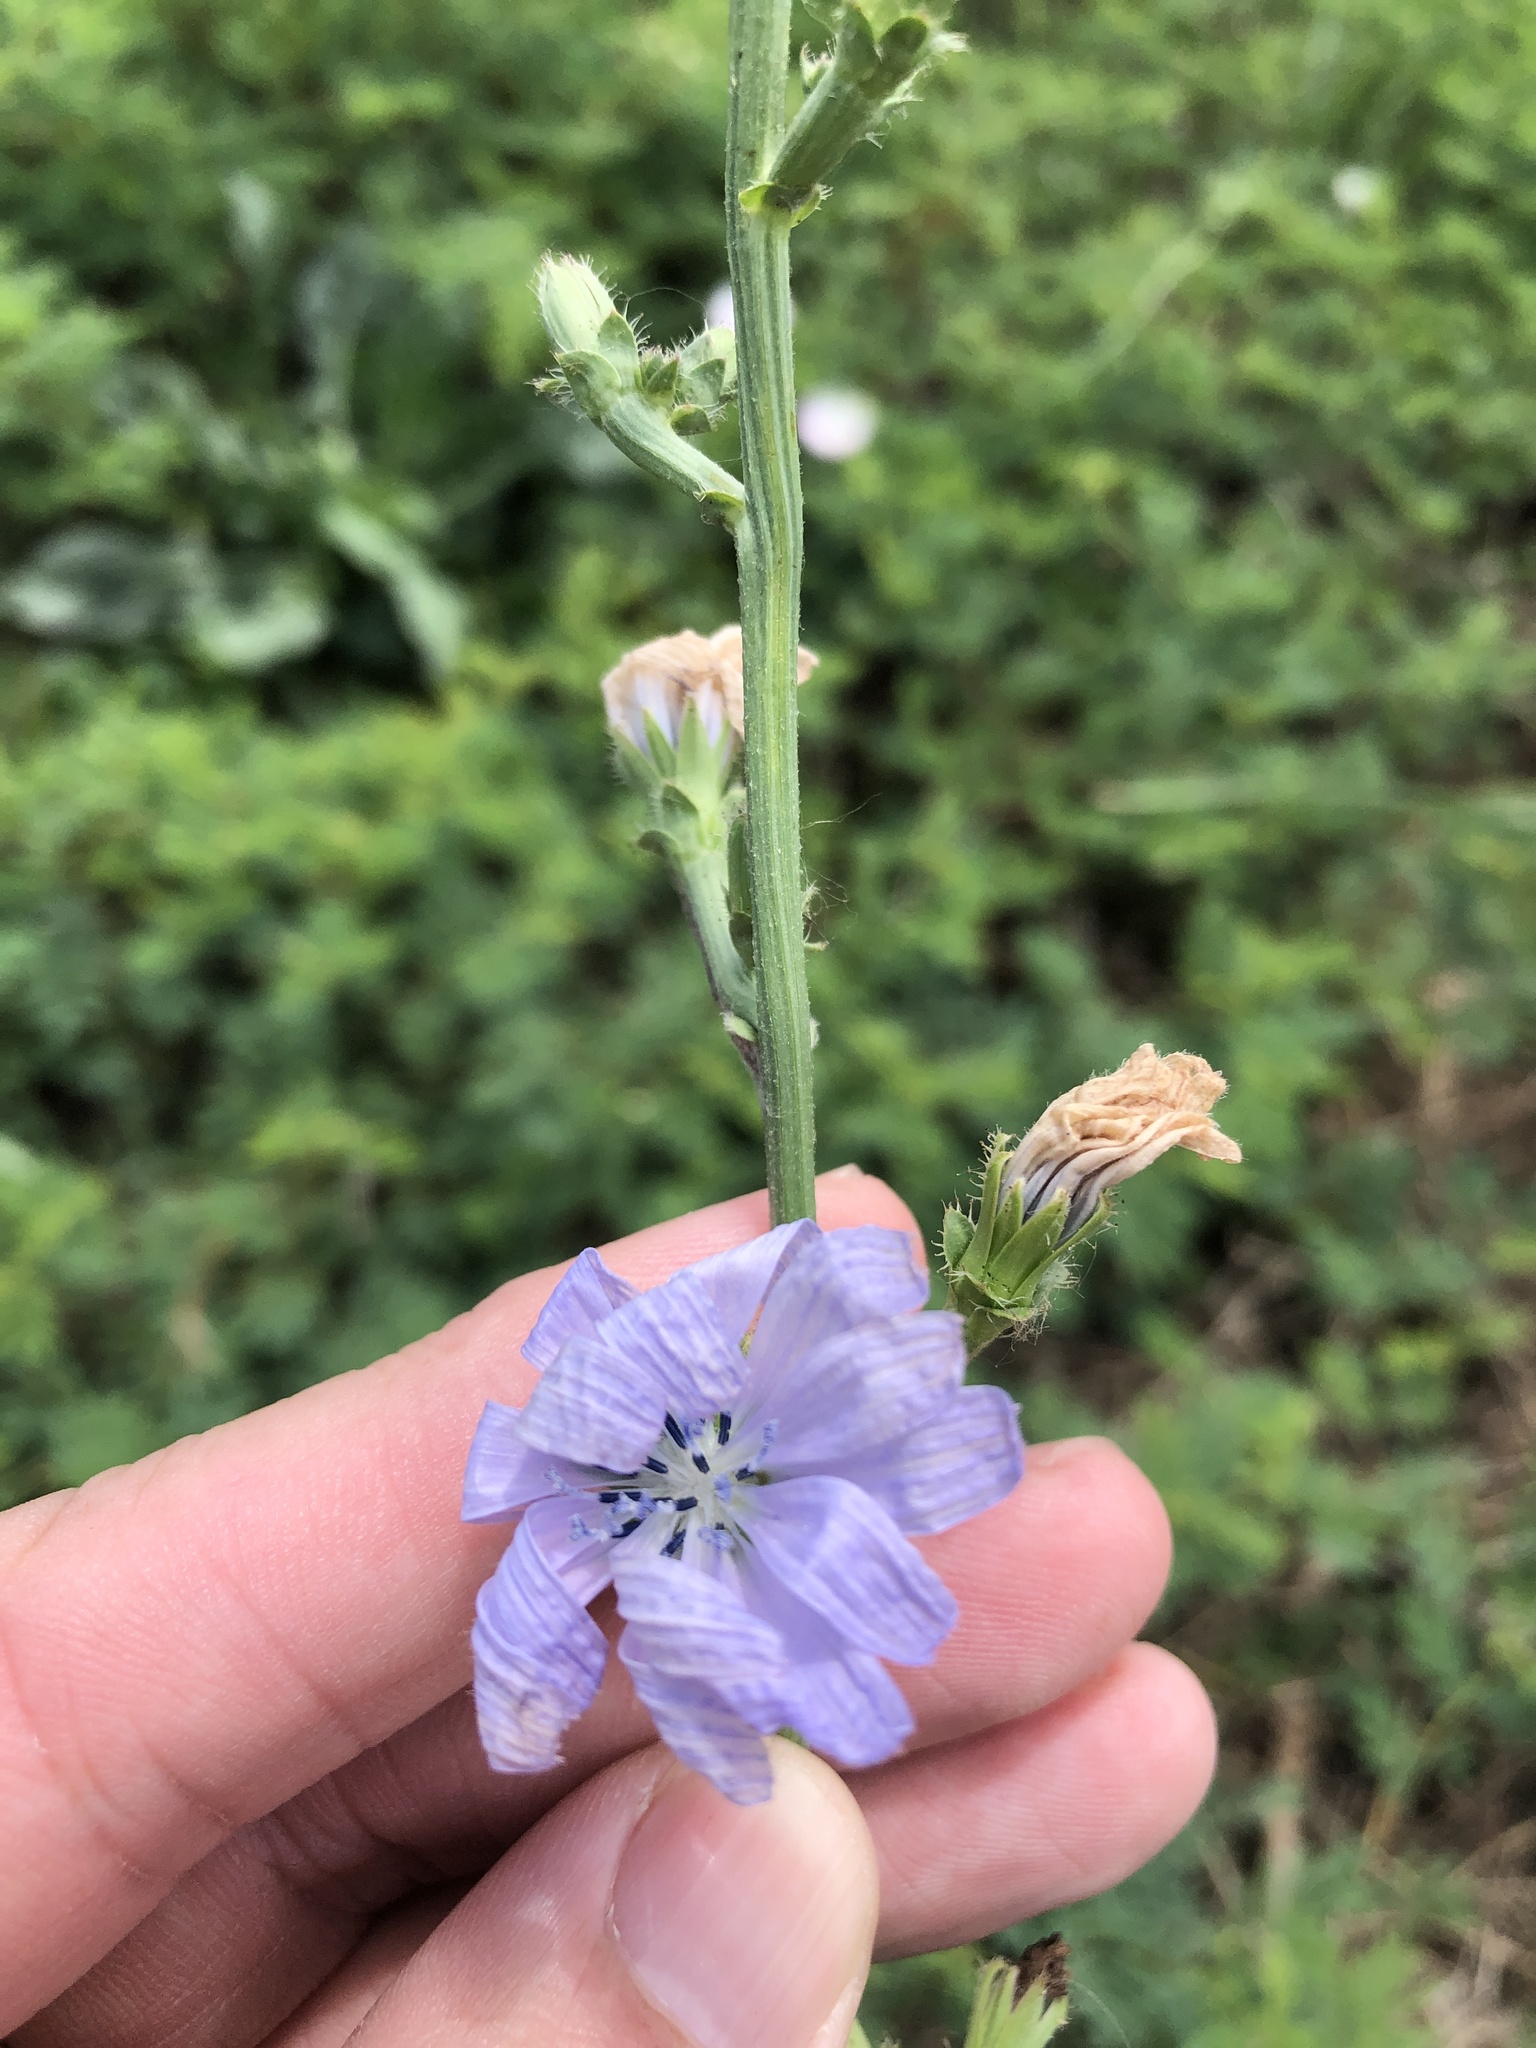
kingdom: Plantae
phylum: Tracheophyta
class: Magnoliopsida
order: Asterales
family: Asteraceae
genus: Cichorium
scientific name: Cichorium intybus
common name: Chicory
